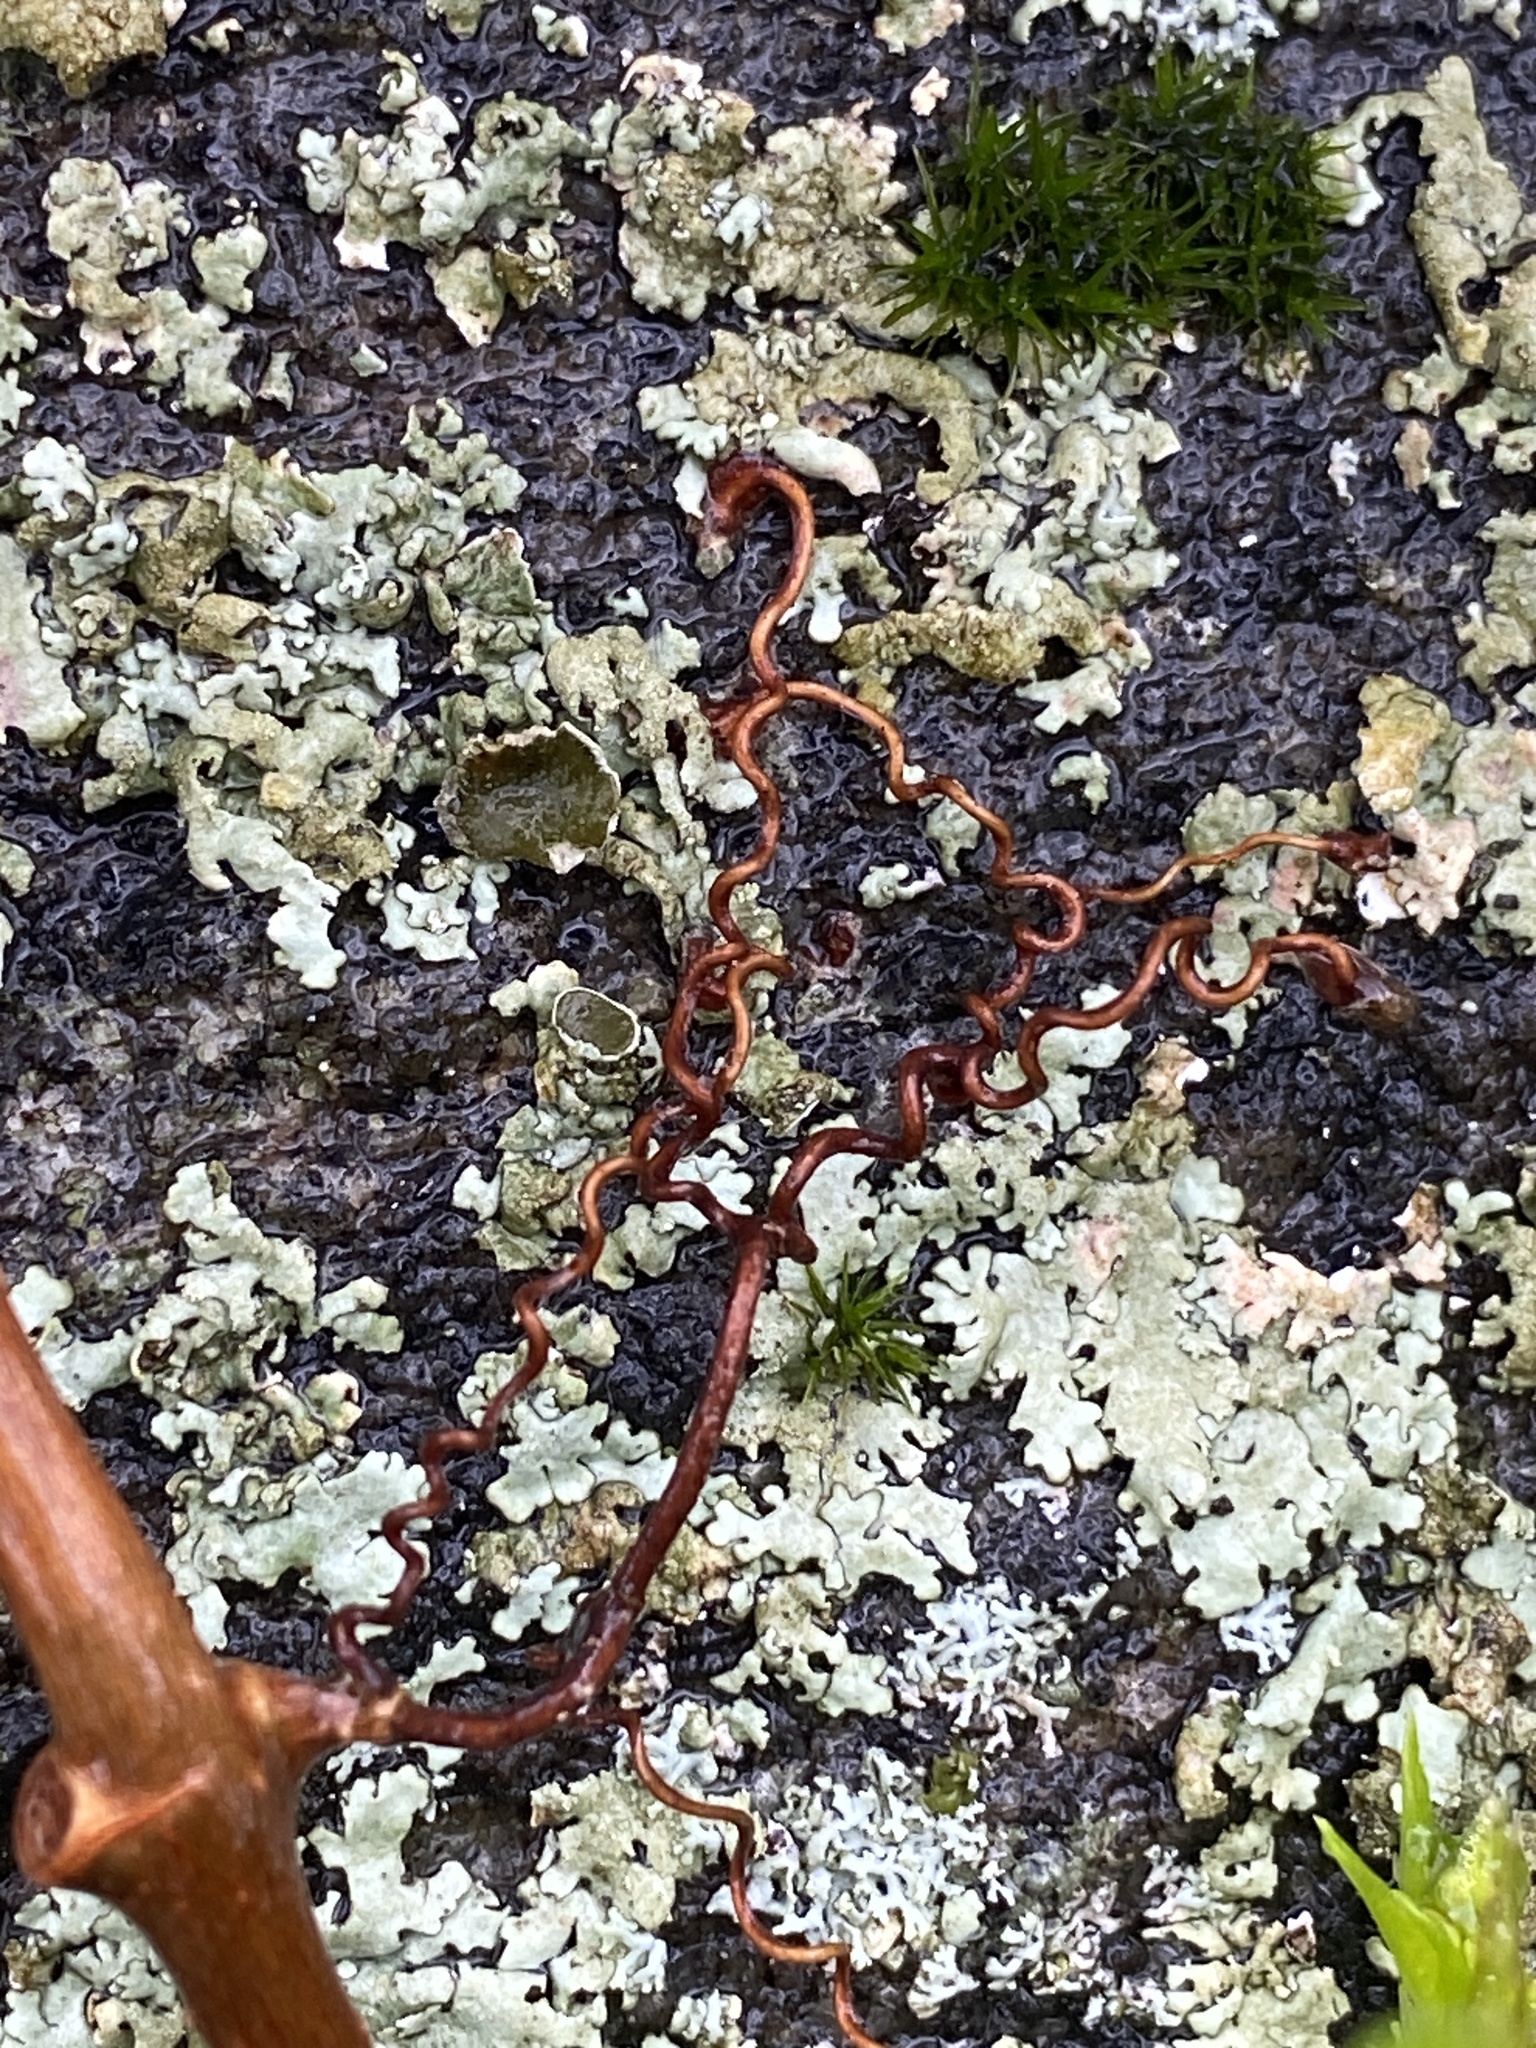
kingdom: Plantae
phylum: Tracheophyta
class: Magnoliopsida
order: Vitales
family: Vitaceae
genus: Parthenocissus
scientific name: Parthenocissus quinquefolia
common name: Virginia-creeper
